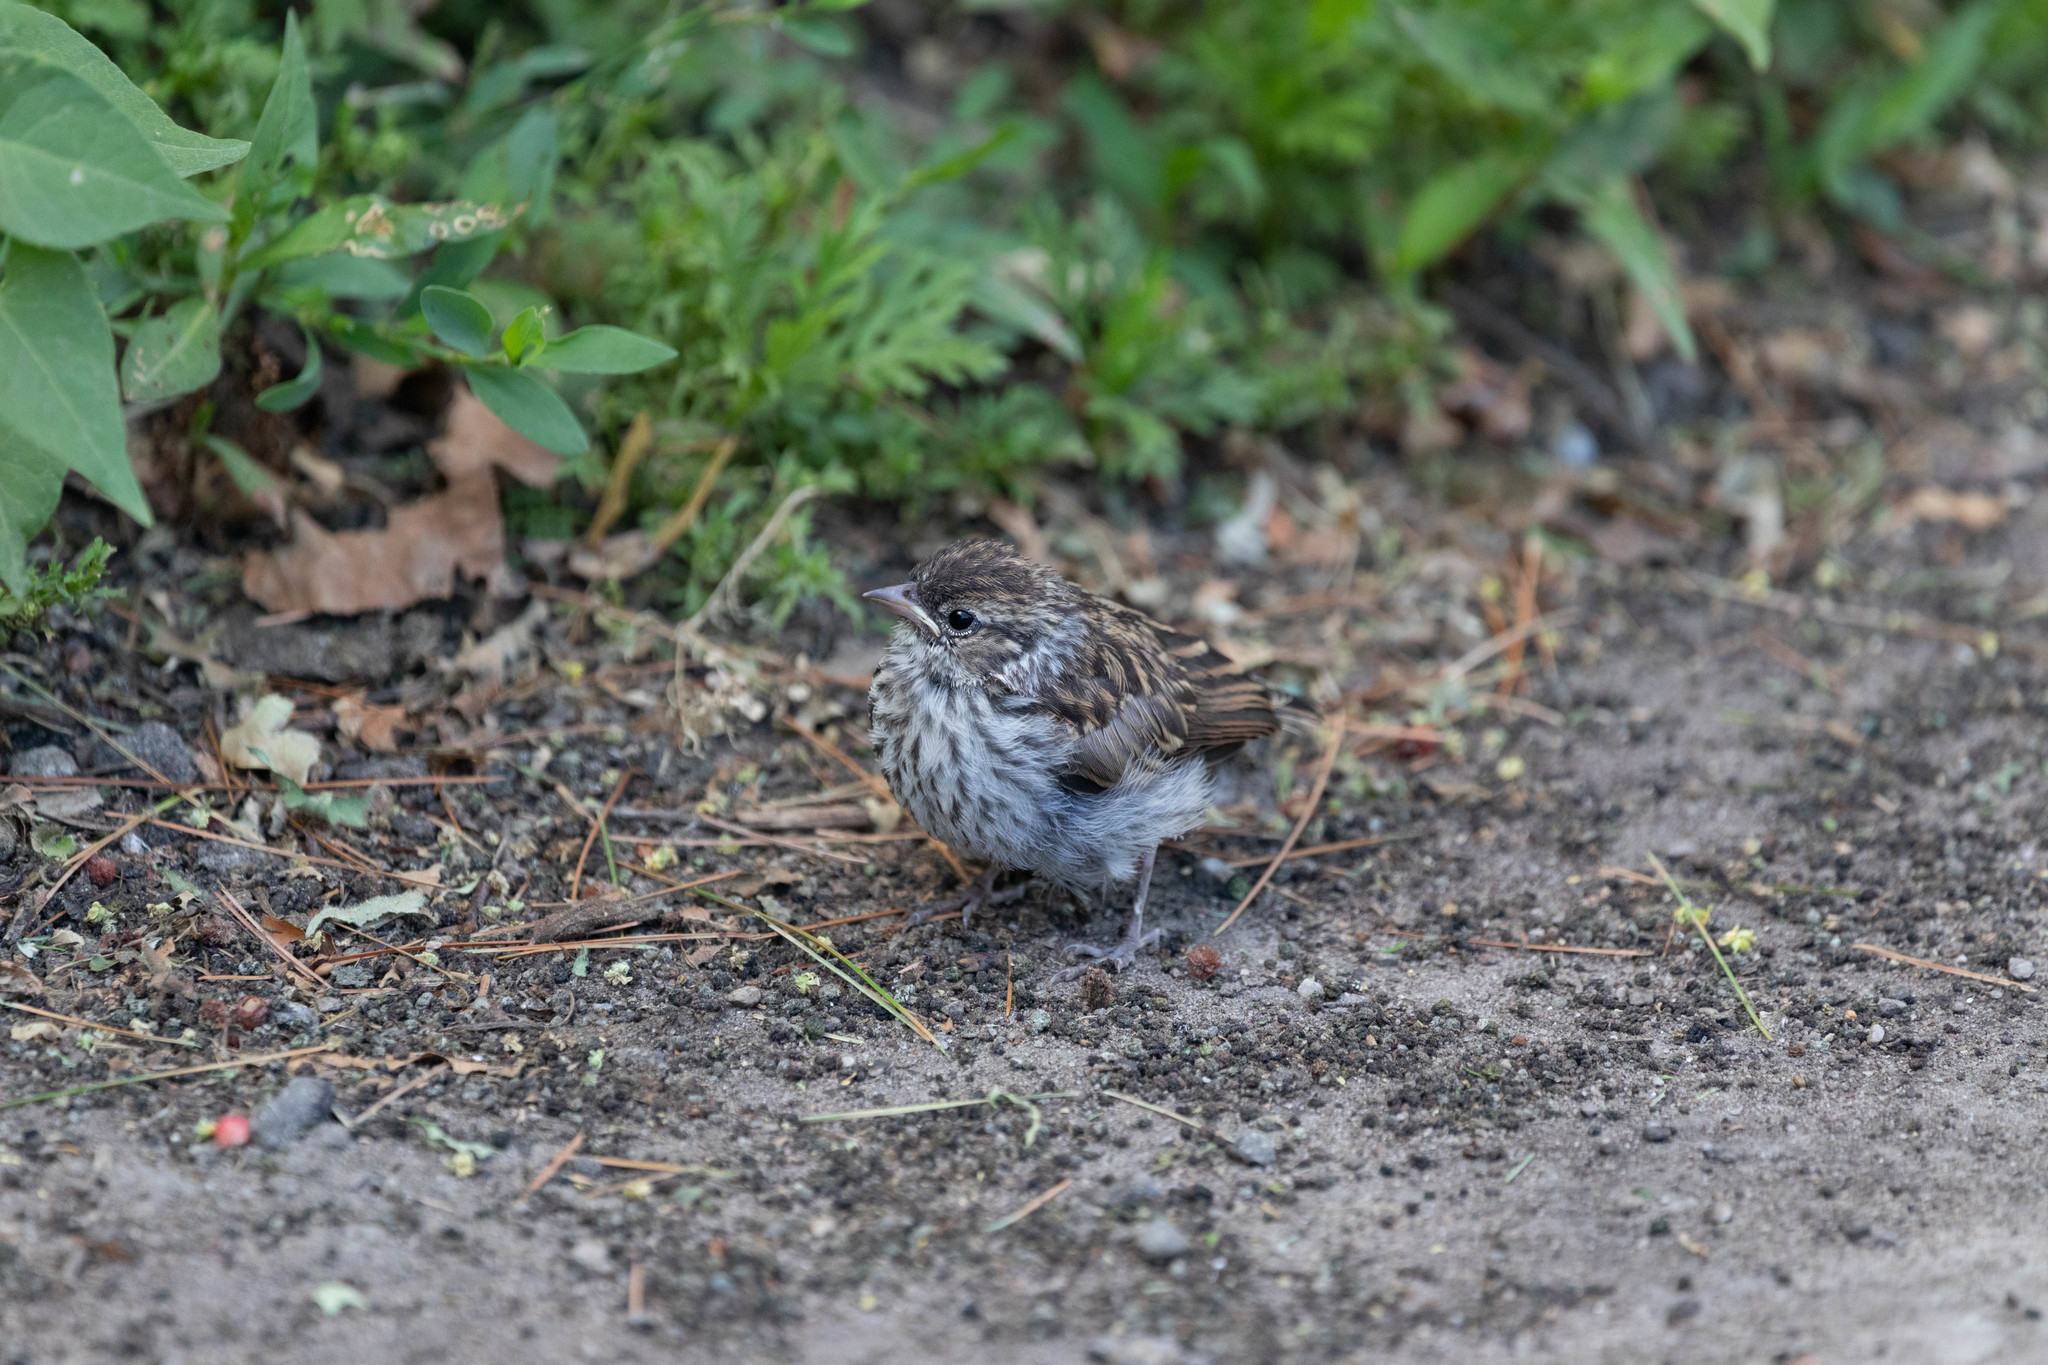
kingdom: Animalia
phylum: Chordata
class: Aves
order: Passeriformes
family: Passerellidae
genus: Spizella
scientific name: Spizella passerina
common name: Chipping sparrow
